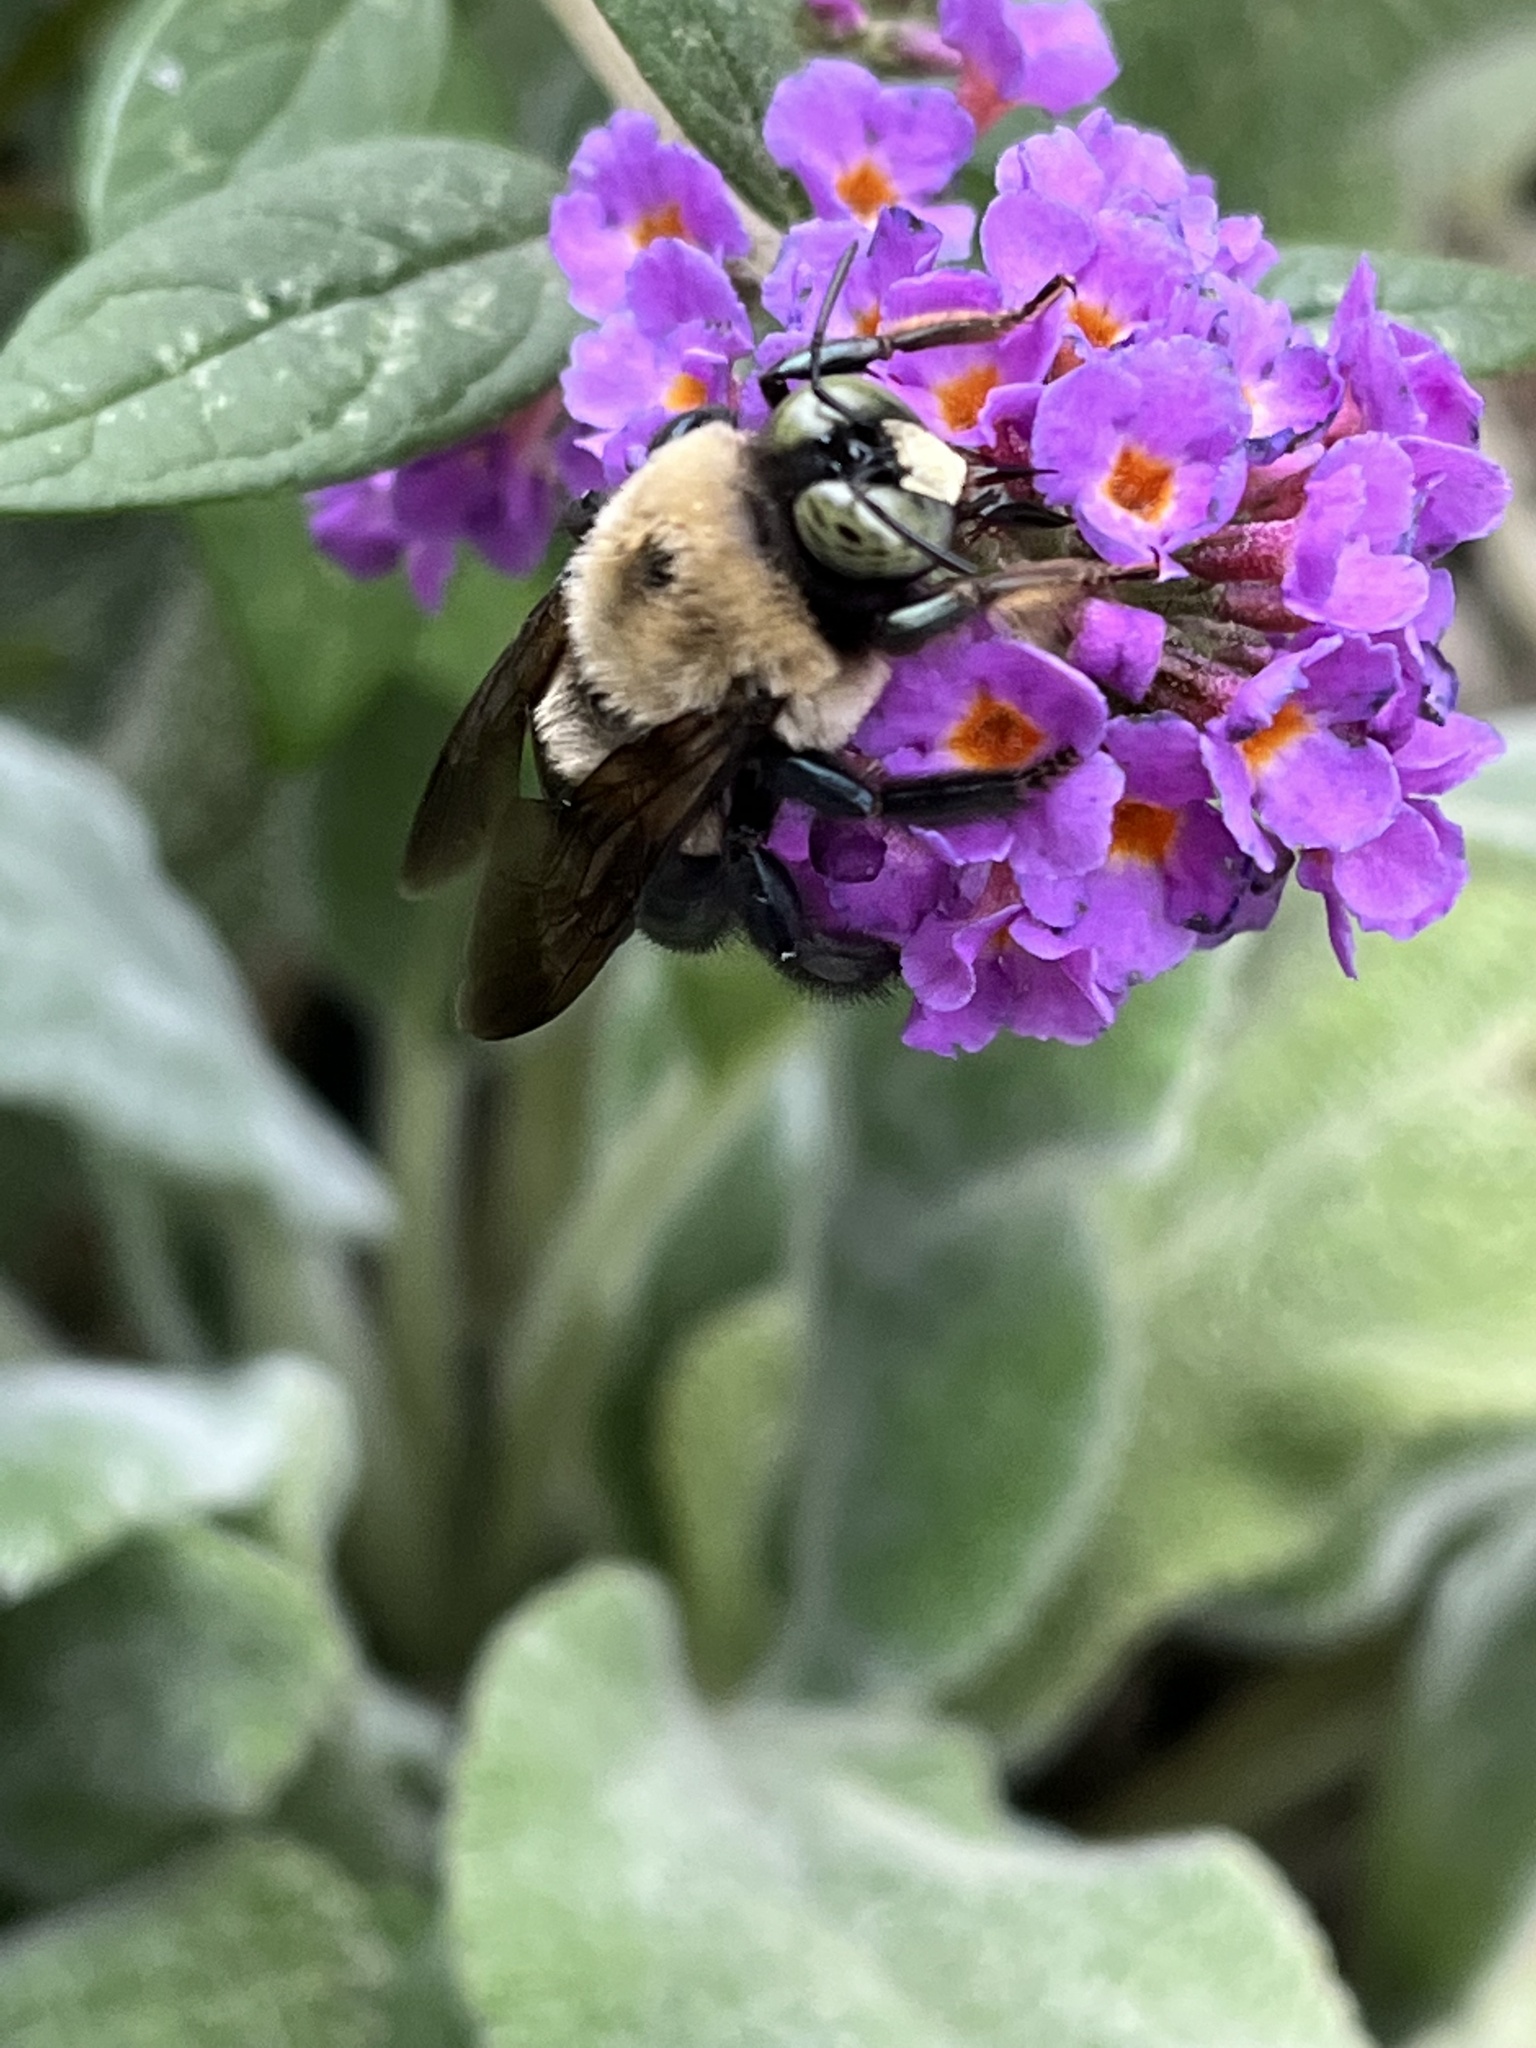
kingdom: Animalia
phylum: Arthropoda
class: Insecta
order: Hymenoptera
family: Apidae
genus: Xylocopa
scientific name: Xylocopa virginica
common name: Carpenter bee
